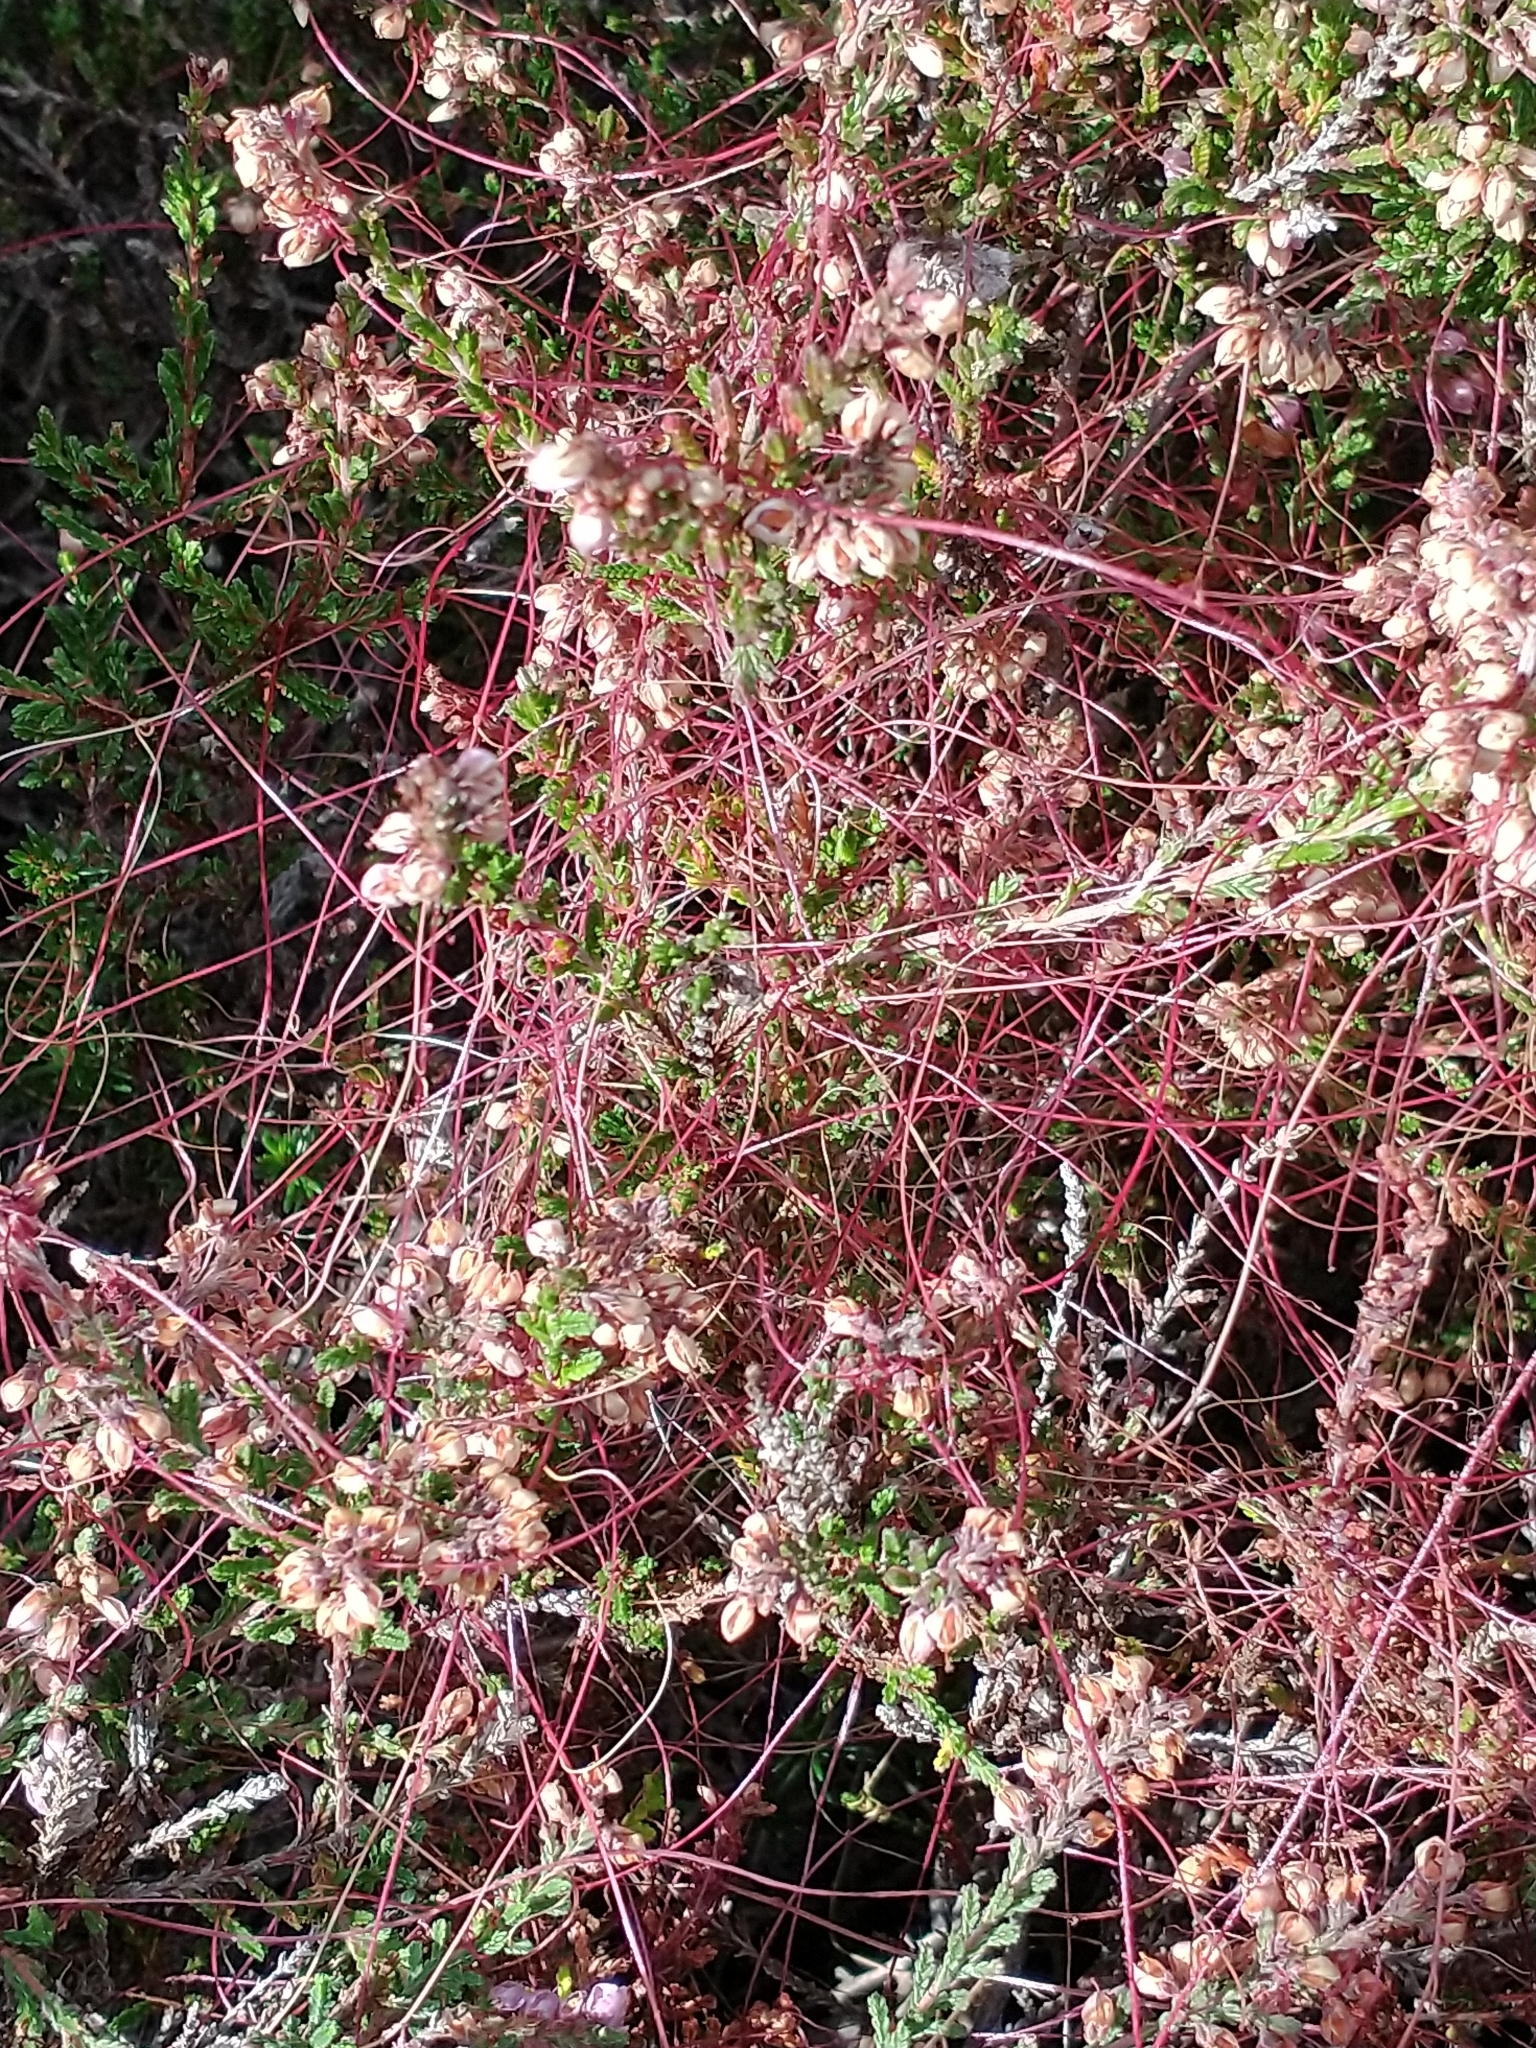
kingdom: Plantae
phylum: Tracheophyta
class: Magnoliopsida
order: Solanales
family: Convolvulaceae
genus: Cuscuta
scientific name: Cuscuta epithymum
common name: Clover dodder
